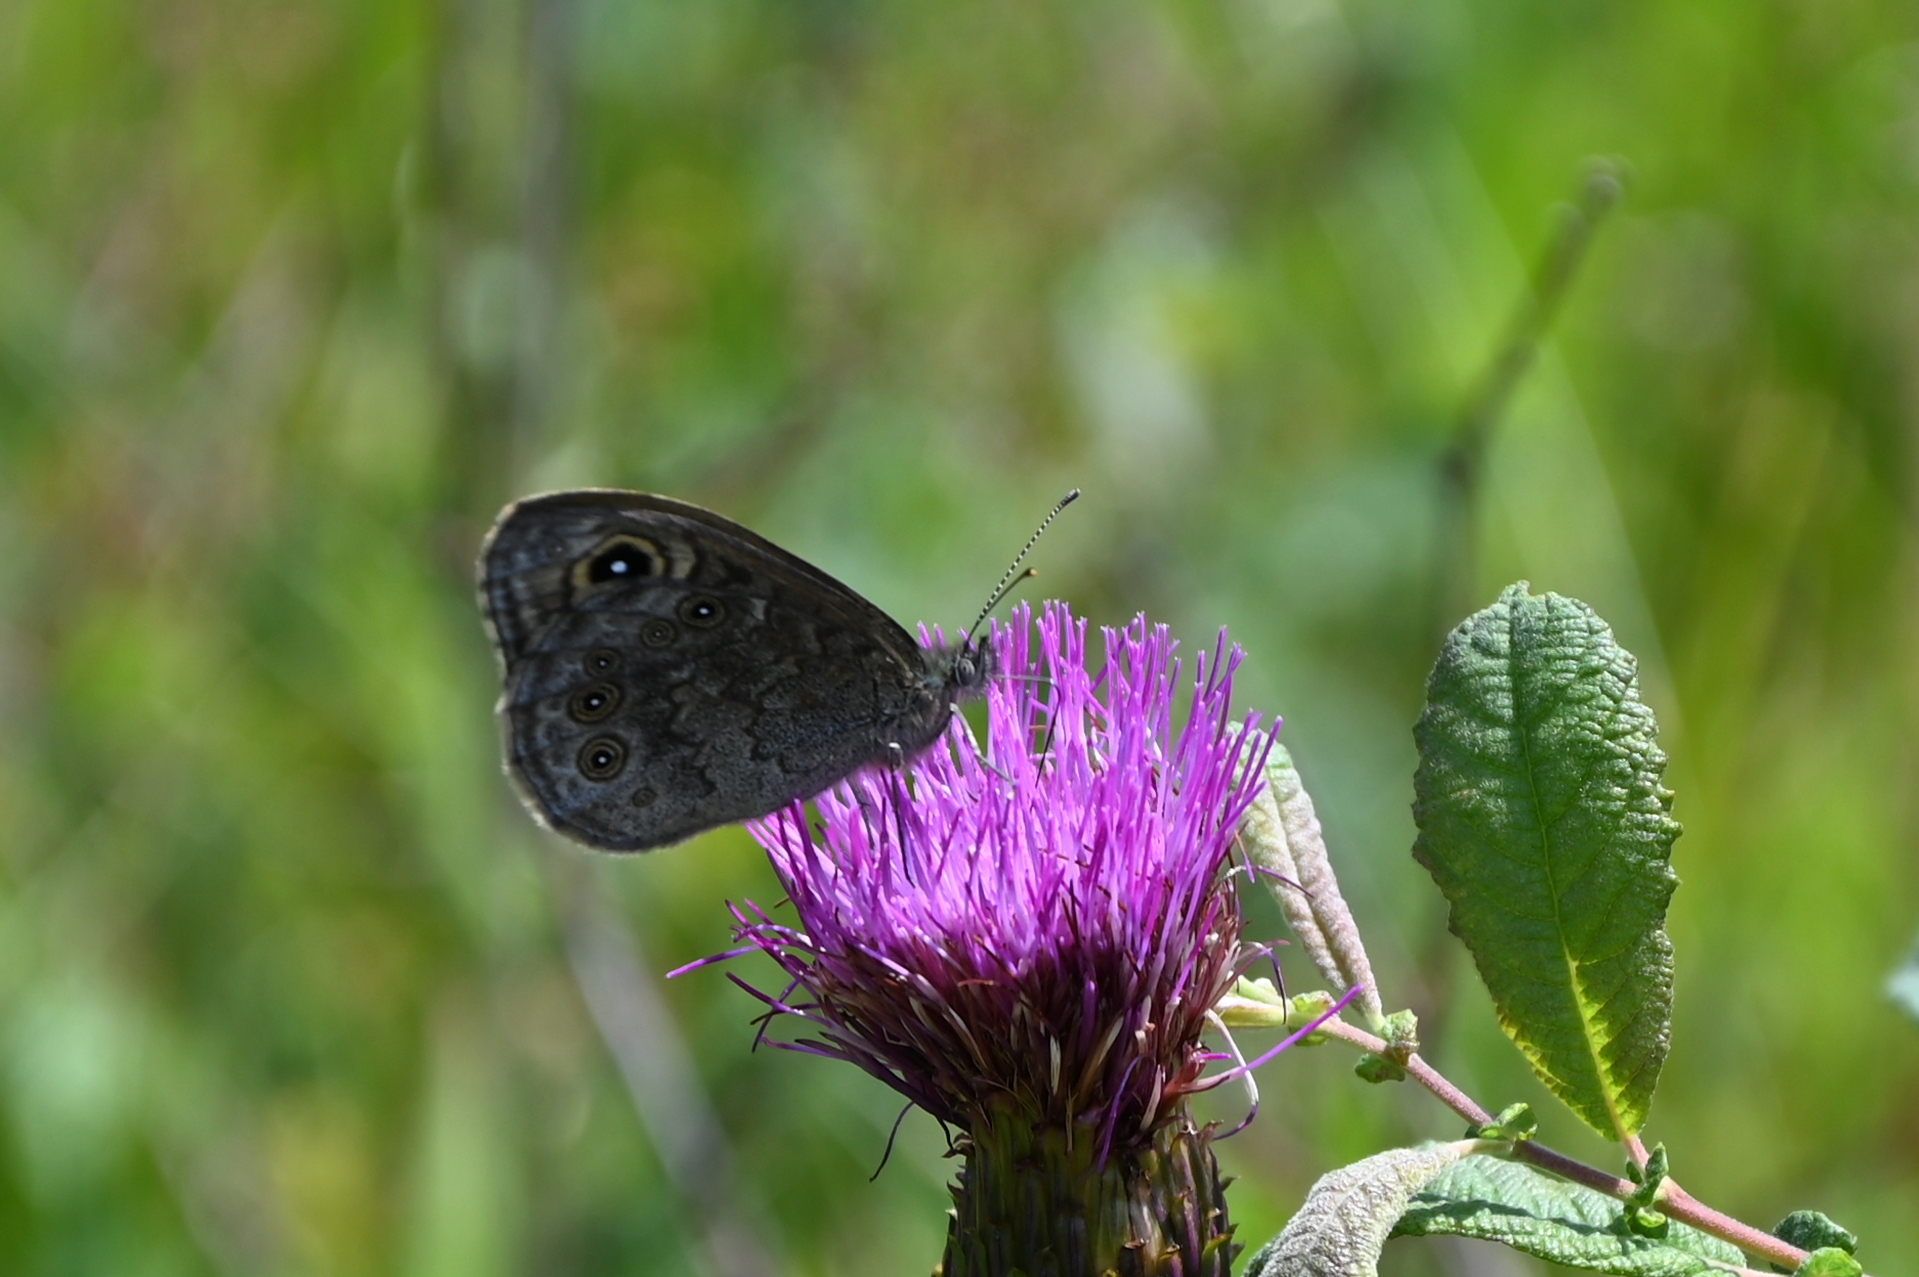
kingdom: Animalia
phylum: Arthropoda
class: Insecta
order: Lepidoptera
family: Nymphalidae
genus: Pararge
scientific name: Pararge Lasiommata maera
